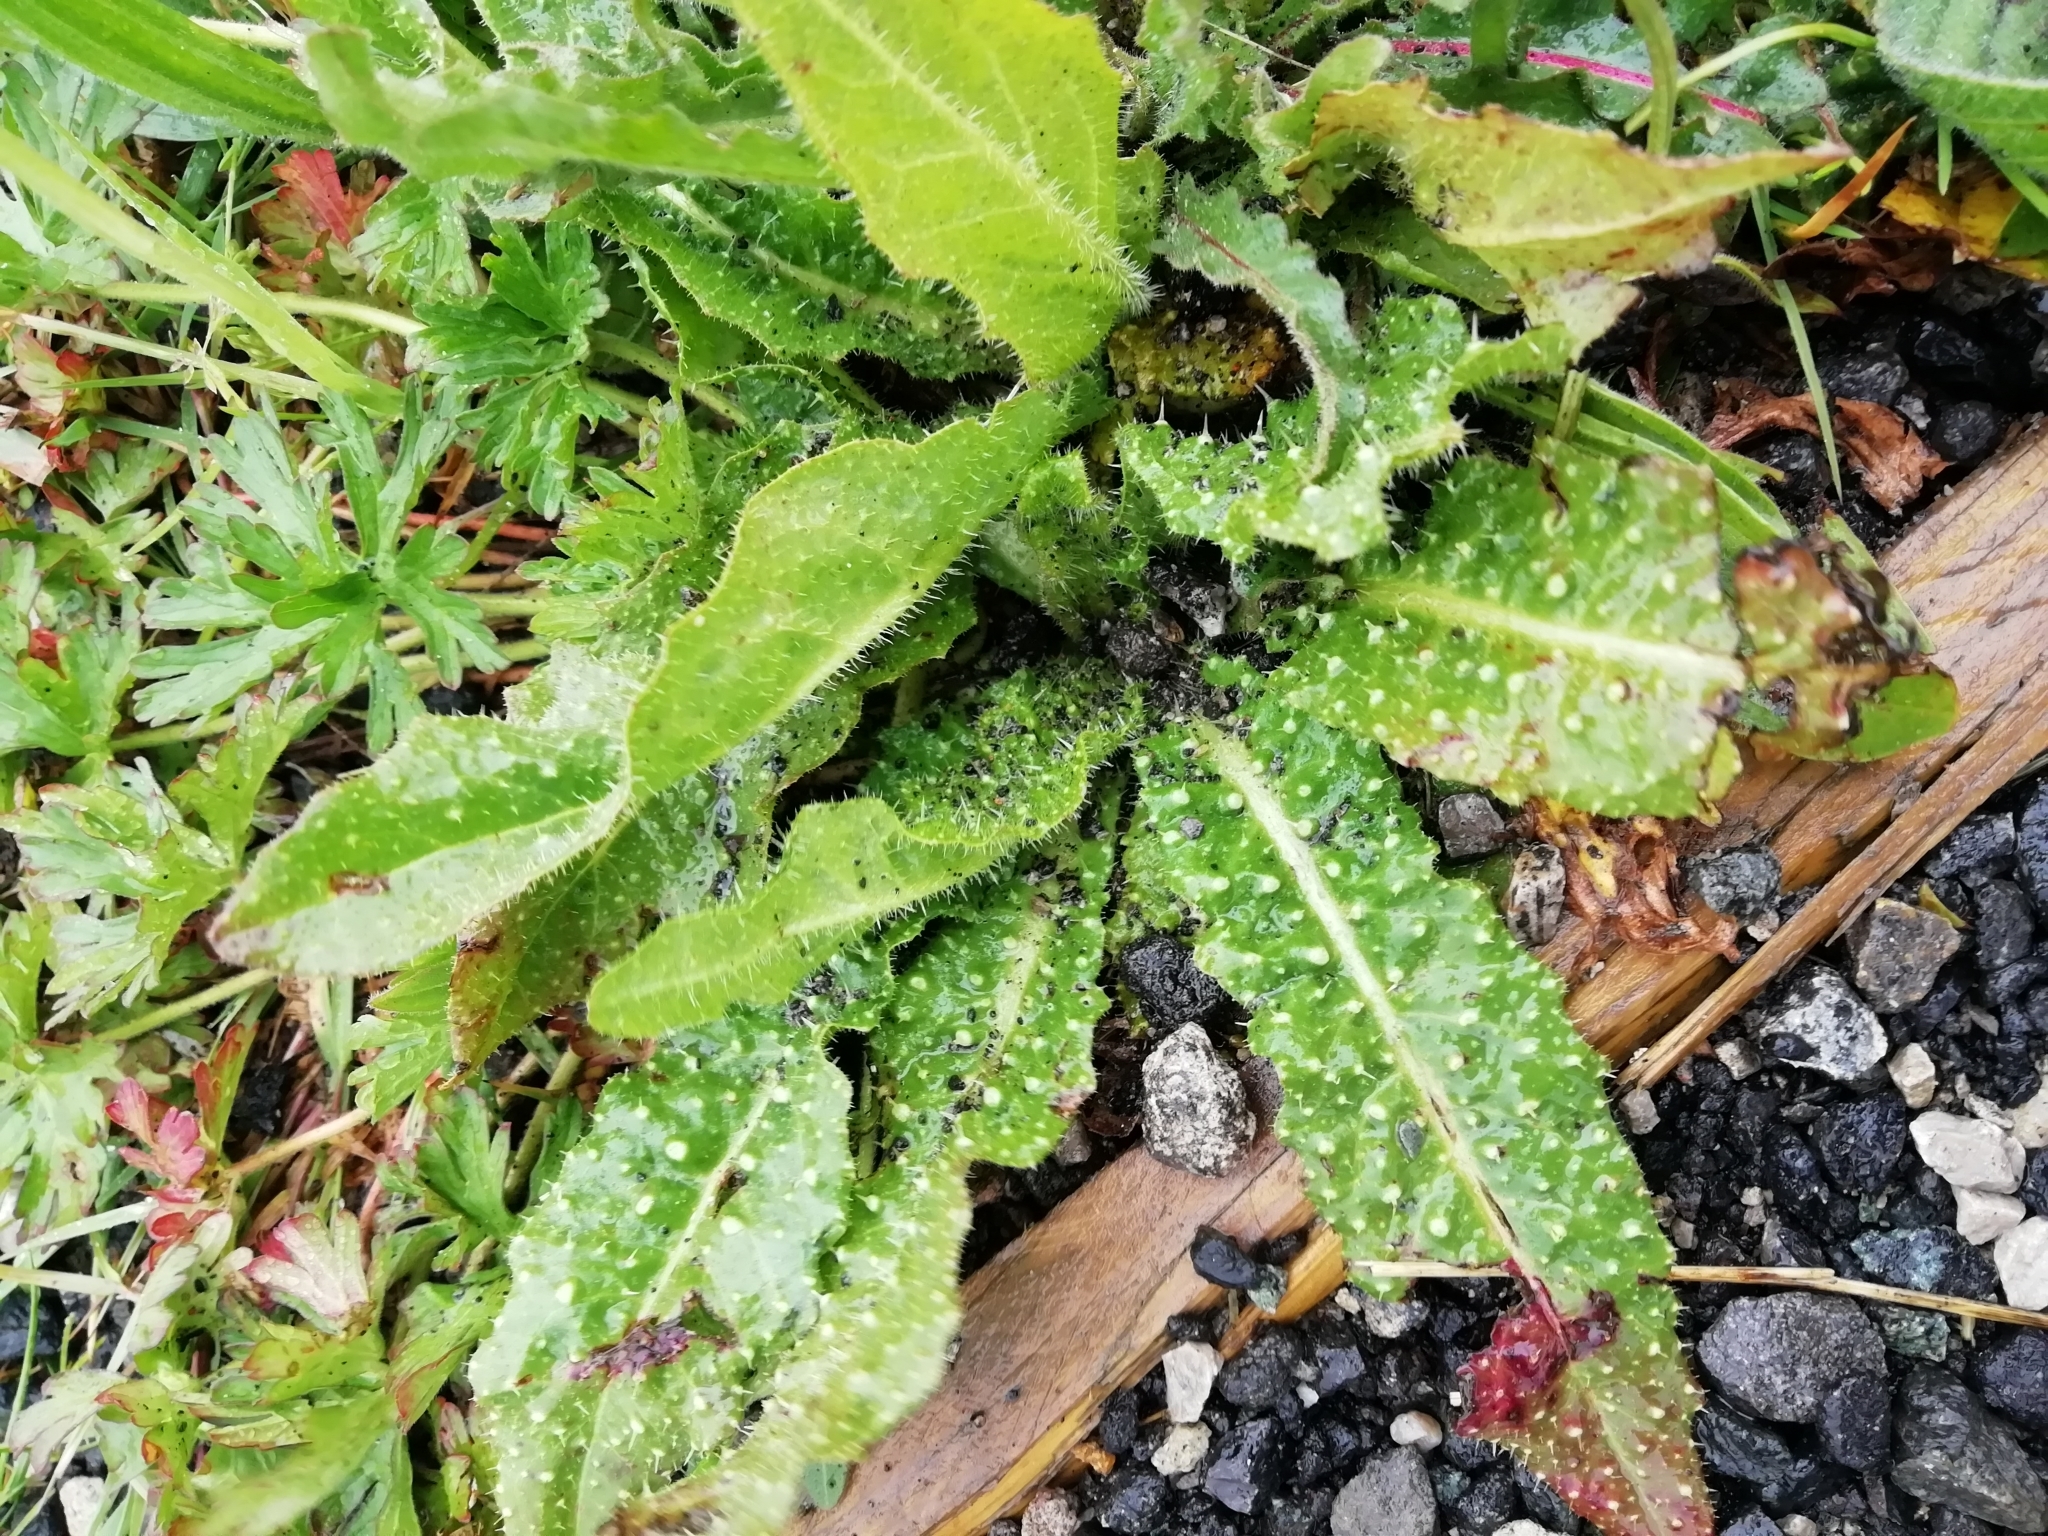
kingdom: Plantae
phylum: Tracheophyta
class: Magnoliopsida
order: Asterales
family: Asteraceae
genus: Helminthotheca
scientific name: Helminthotheca echioides
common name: Ox-tongue
